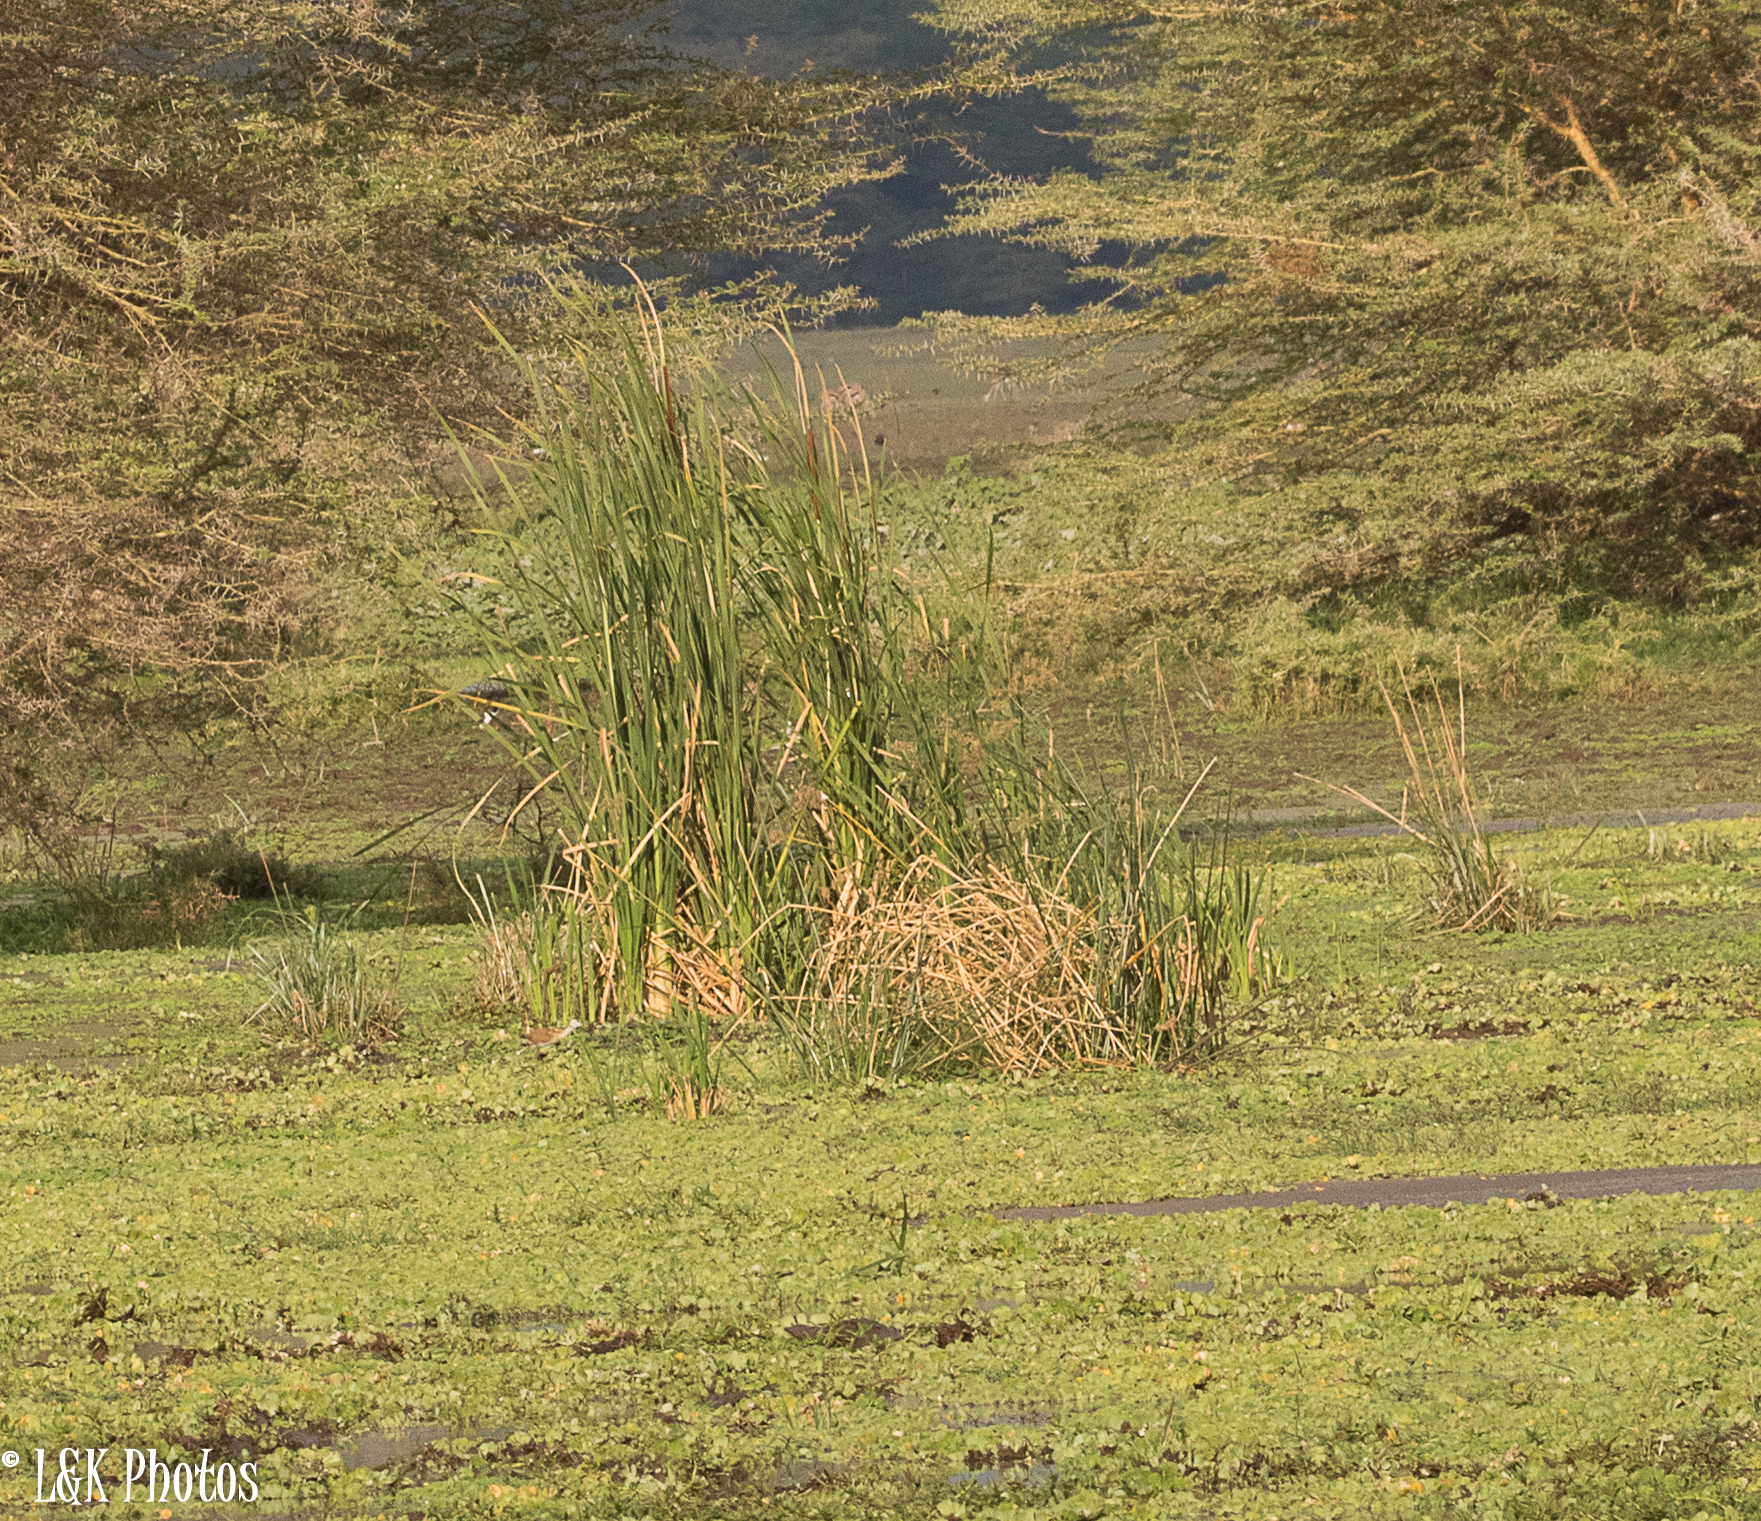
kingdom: Plantae
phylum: Tracheophyta
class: Liliopsida
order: Poales
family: Typhaceae
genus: Typha
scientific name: Typha domingensis
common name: Southern cattail
